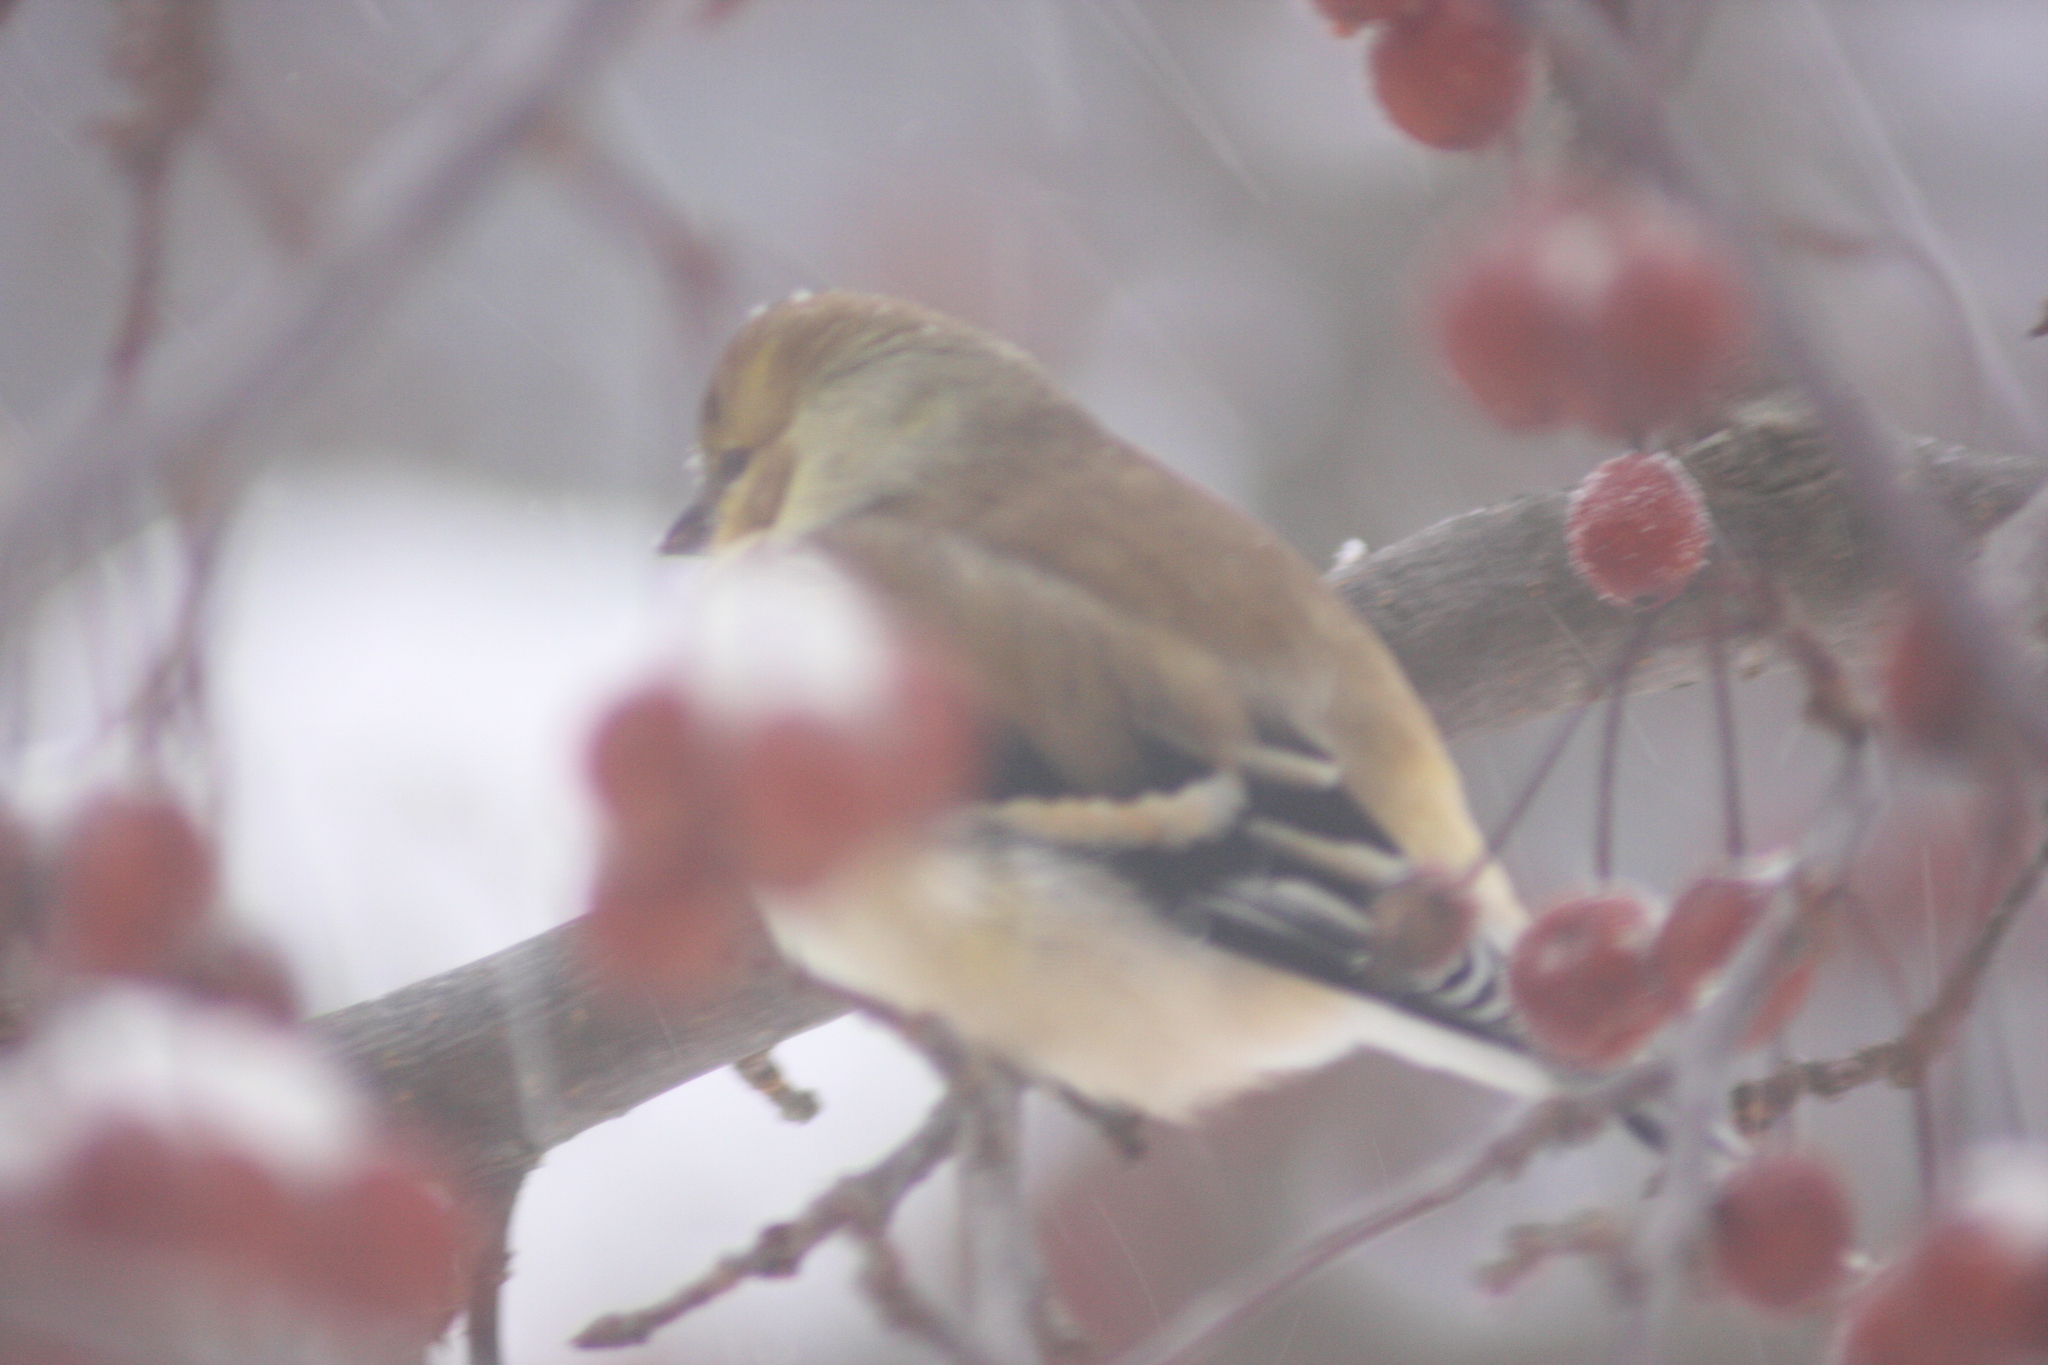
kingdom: Animalia
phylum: Chordata
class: Aves
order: Passeriformes
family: Fringillidae
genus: Spinus
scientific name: Spinus tristis
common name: American goldfinch
